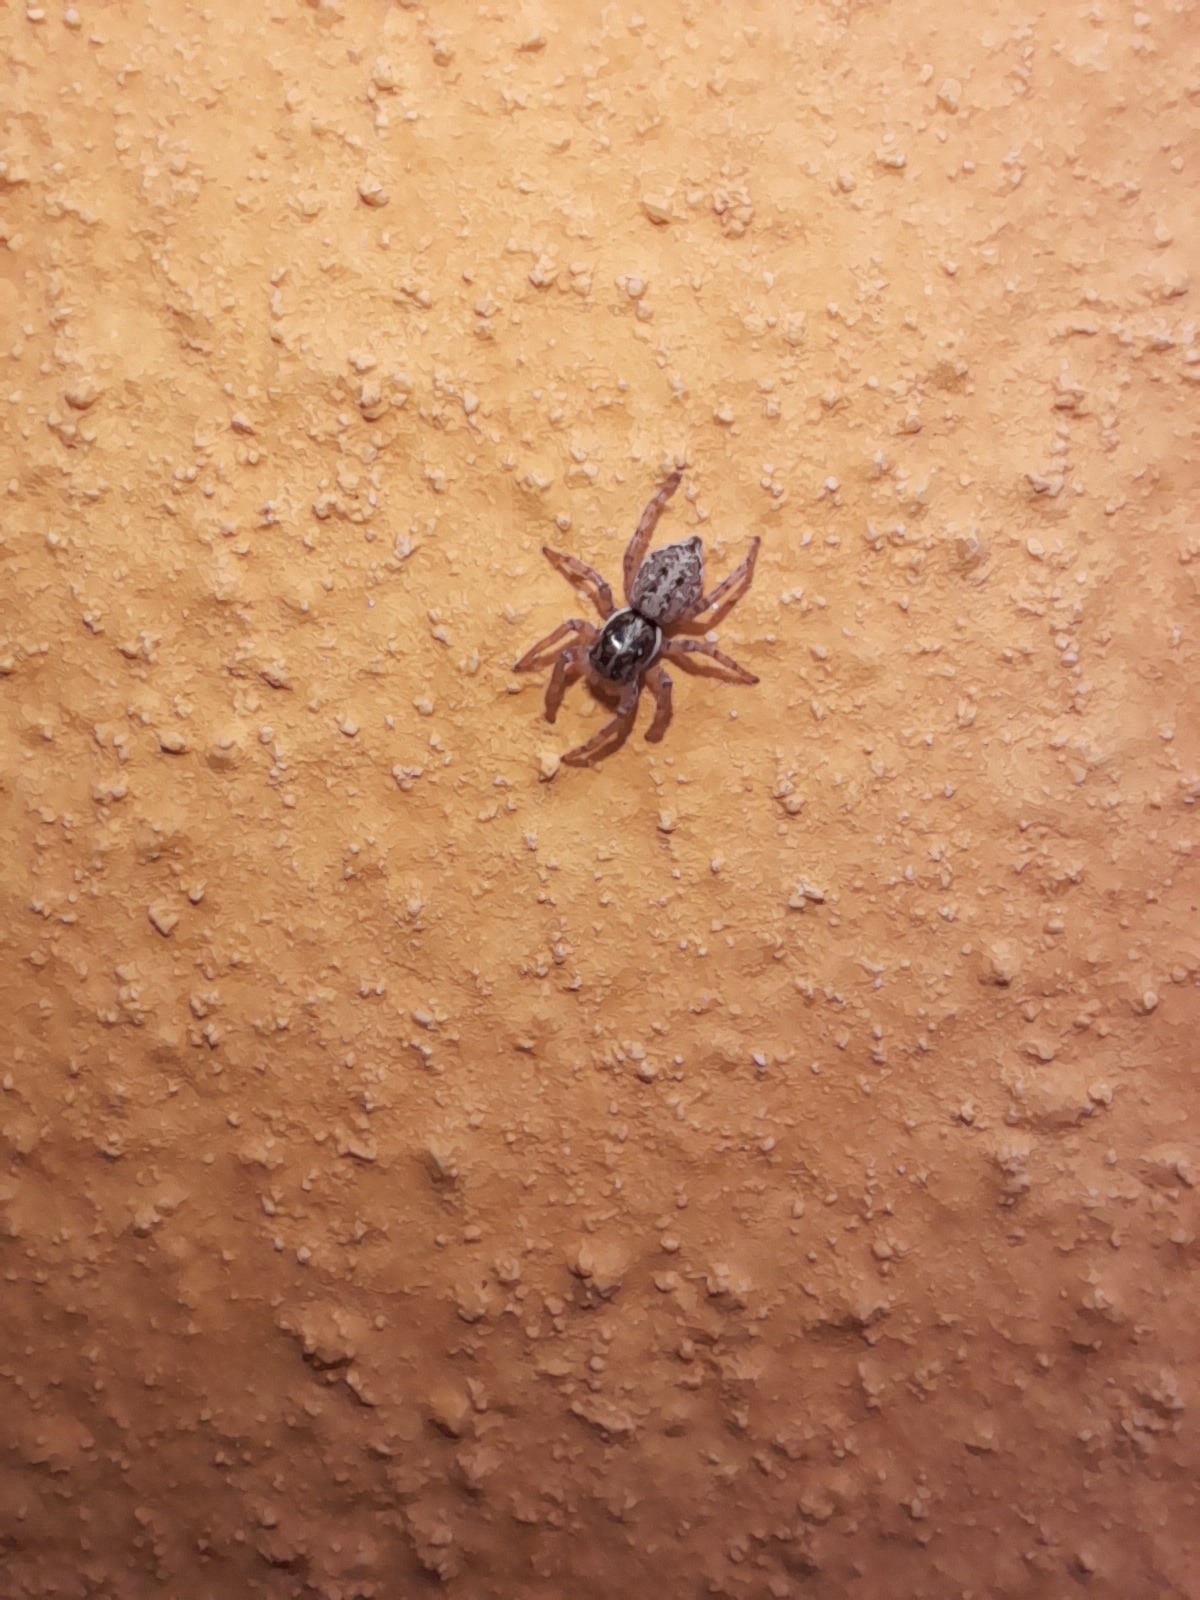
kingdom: Animalia
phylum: Arthropoda
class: Arachnida
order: Araneae
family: Salticidae
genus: Menemerus
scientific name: Menemerus semilimbatus
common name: Jumping spider
